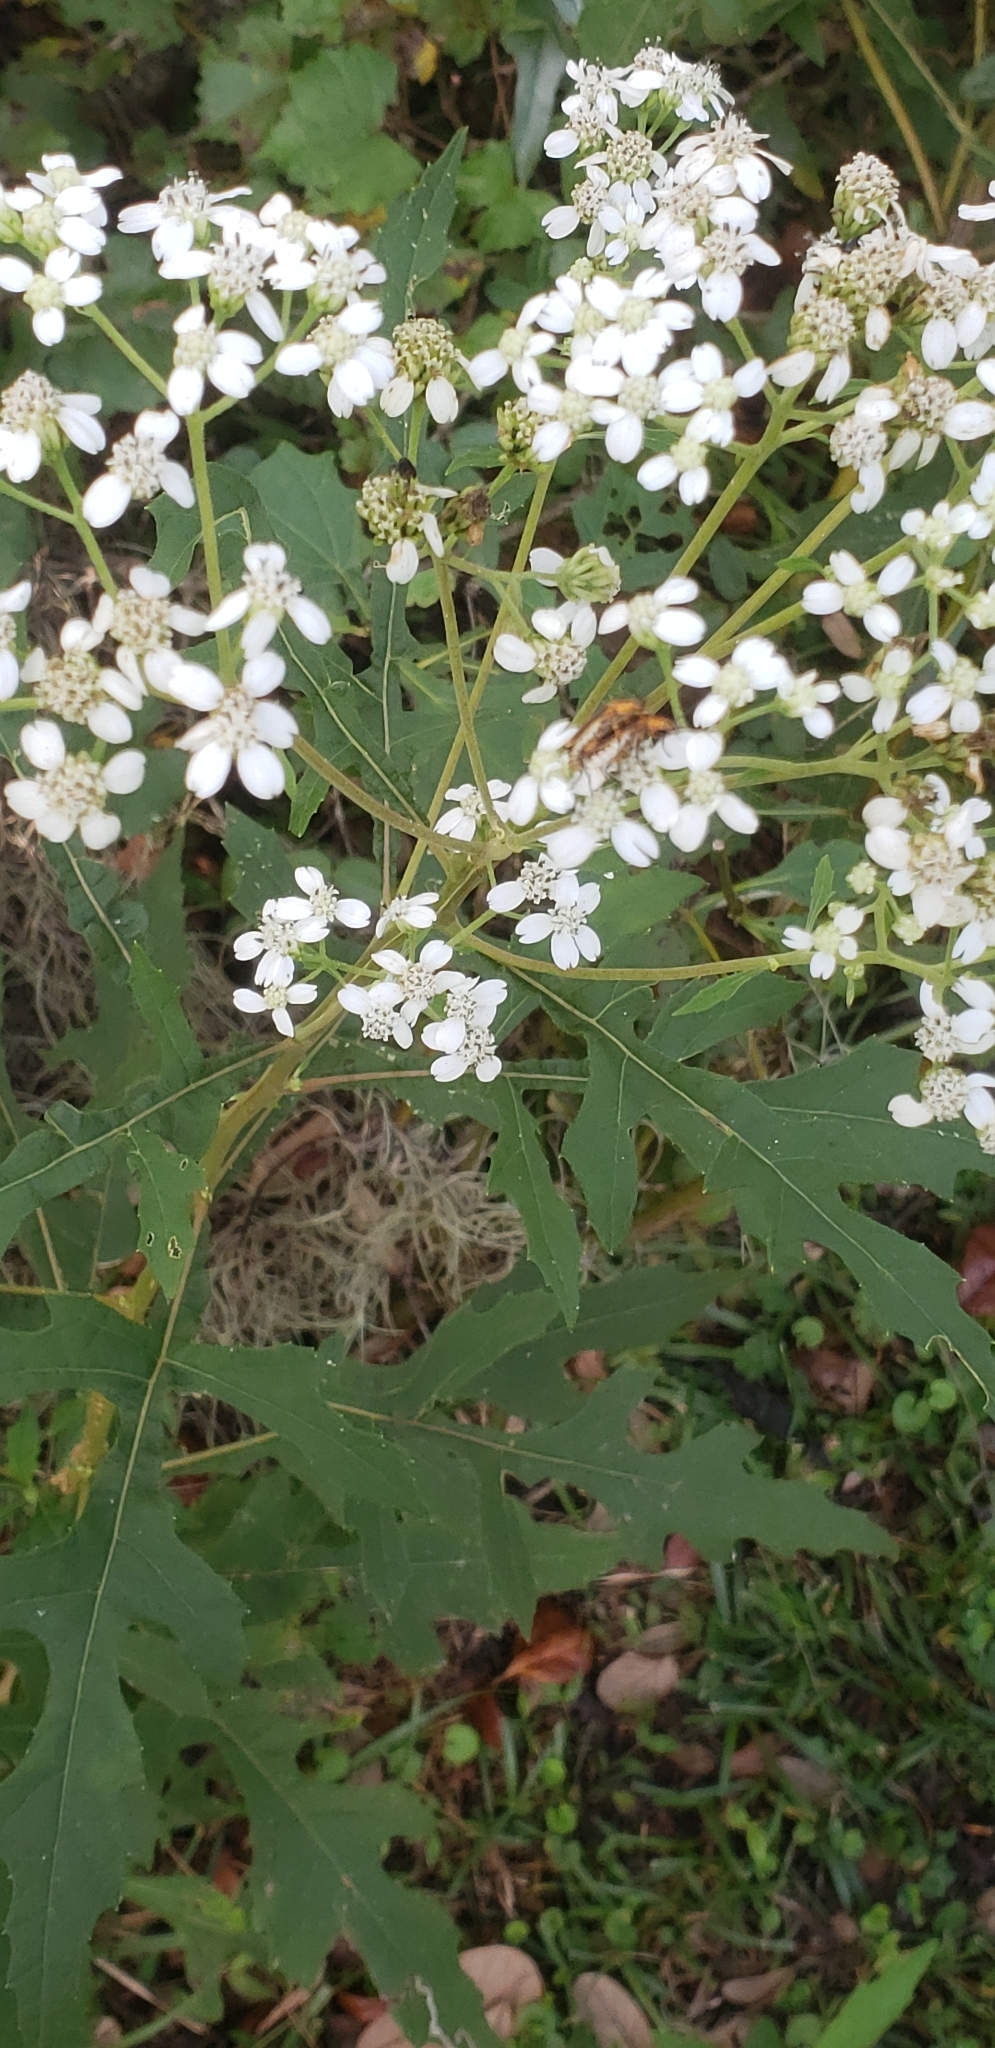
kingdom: Plantae
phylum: Tracheophyta
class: Magnoliopsida
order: Asterales
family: Asteraceae
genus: Verbesina
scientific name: Verbesina virginica
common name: Frostweed
